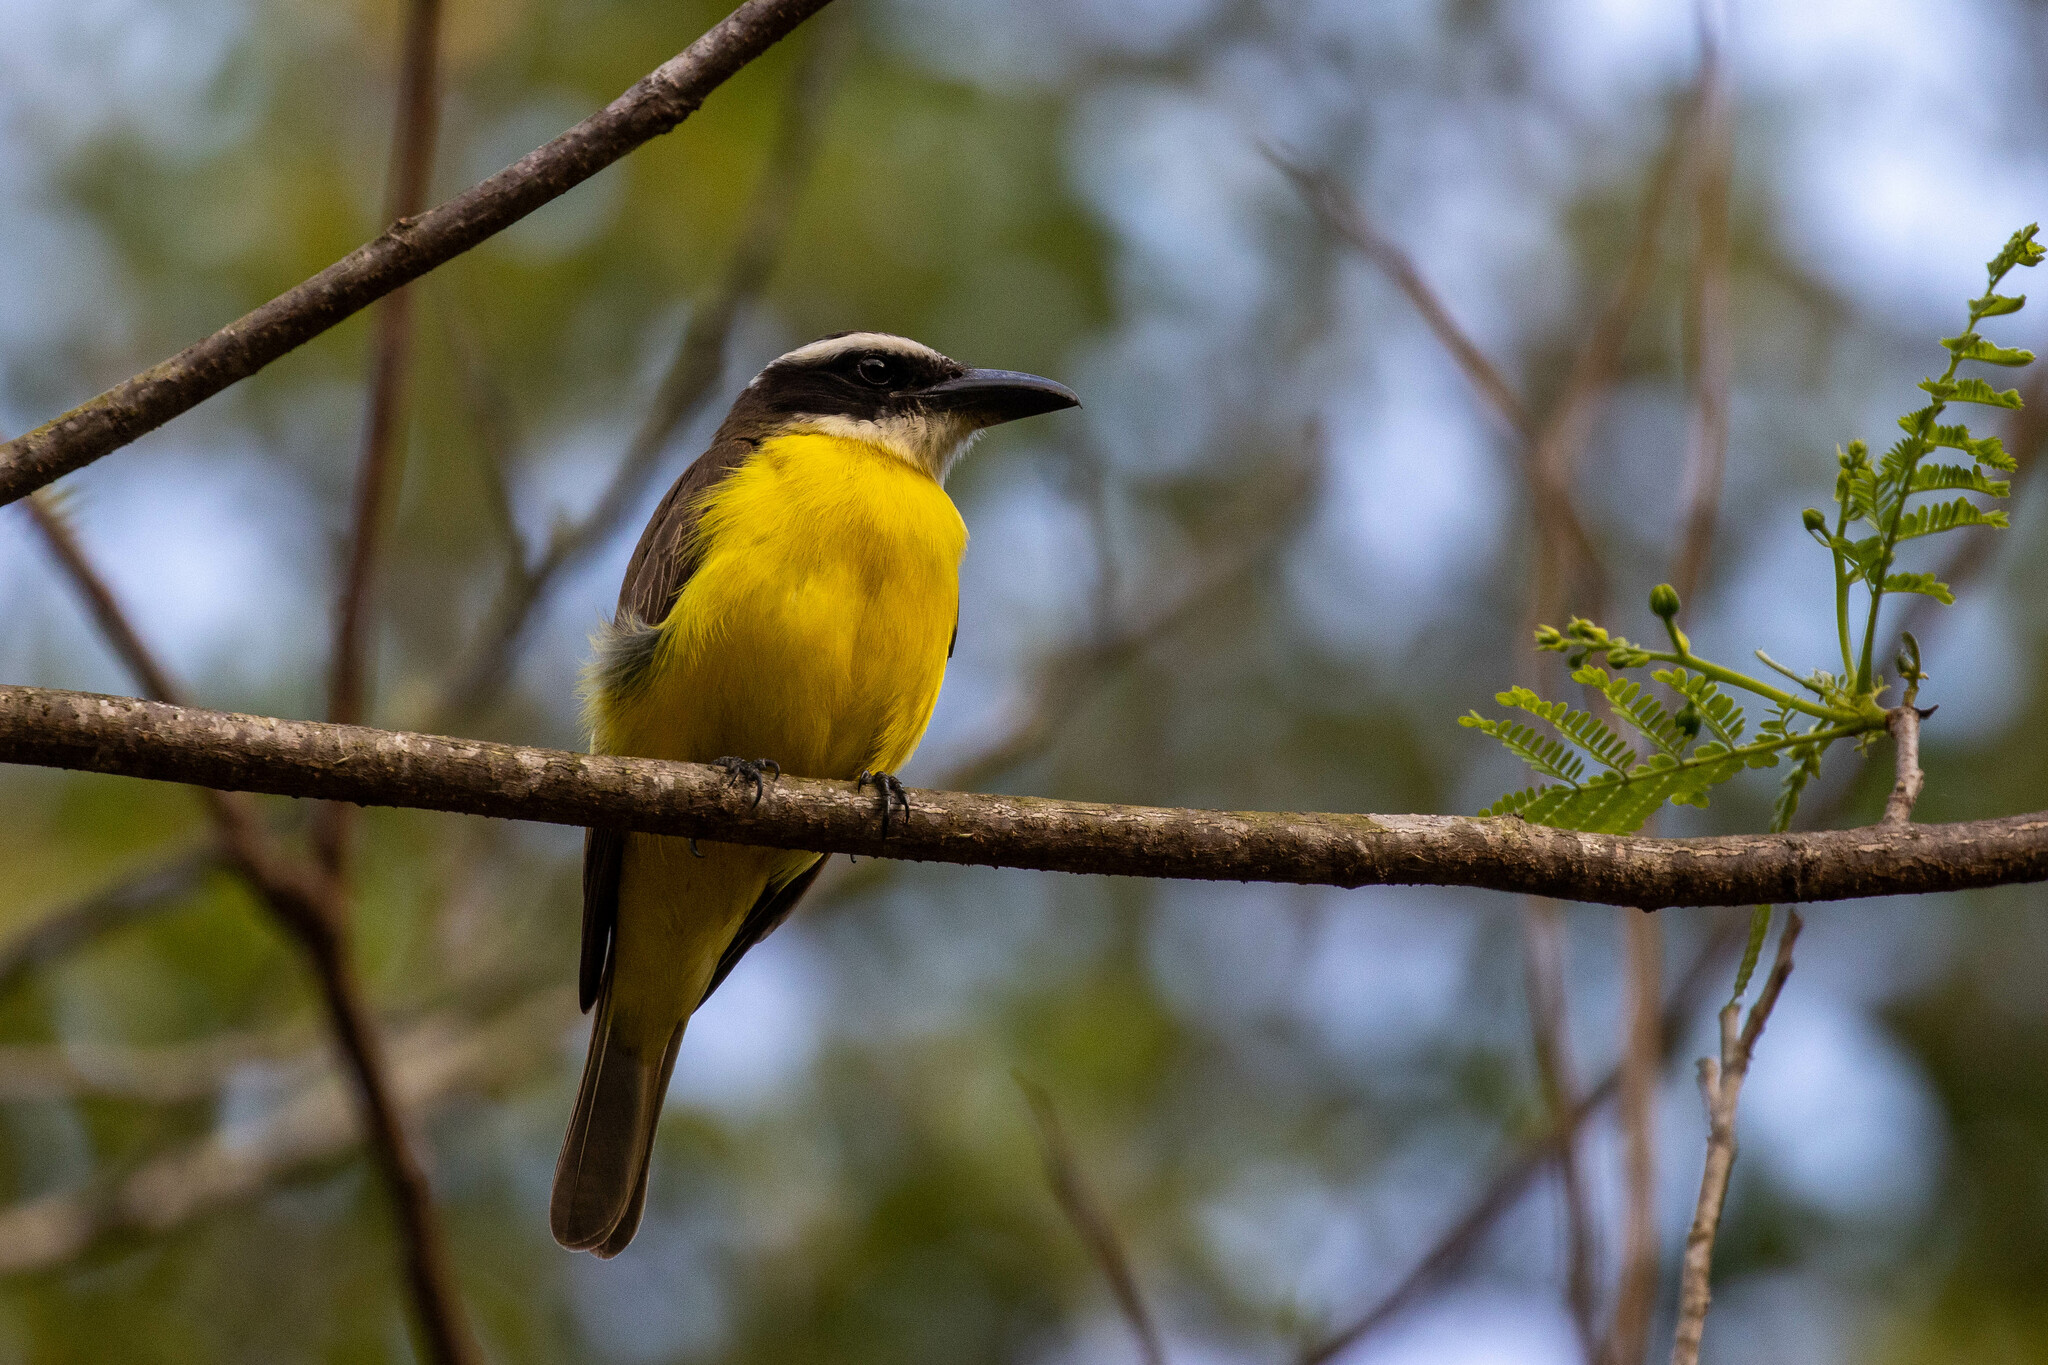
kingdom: Animalia
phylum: Chordata
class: Aves
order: Passeriformes
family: Tyrannidae
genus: Megarynchus
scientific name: Megarynchus pitangua
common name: Boat-billed flycatcher
